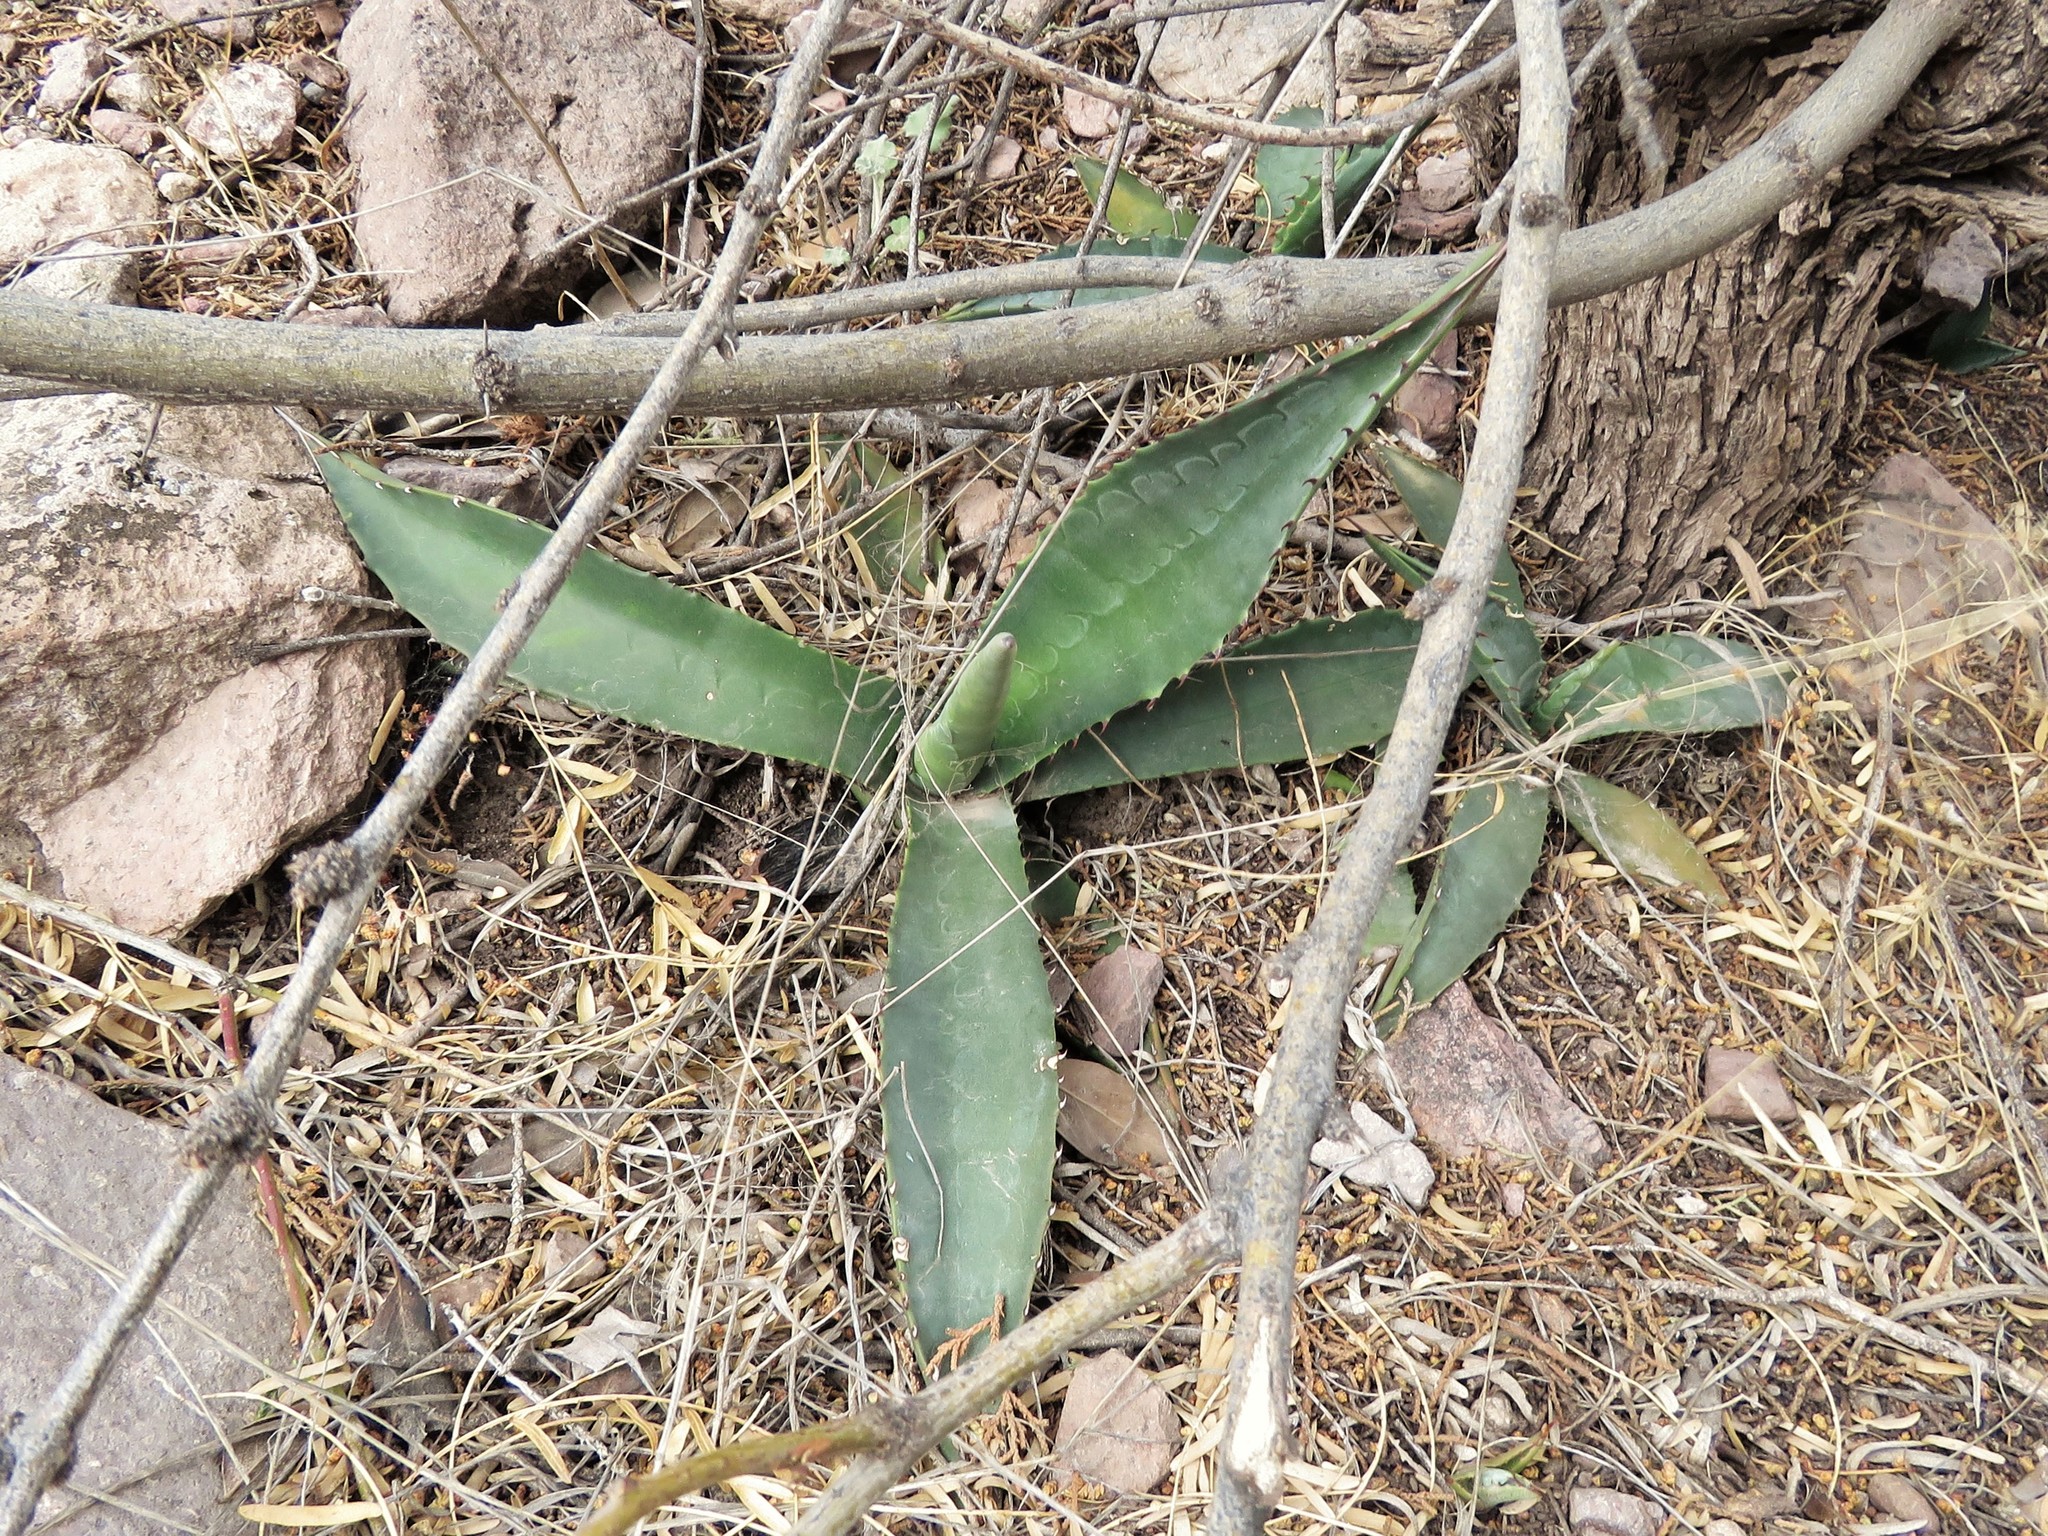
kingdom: Plantae
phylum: Tracheophyta
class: Liliopsida
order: Asparagales
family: Asparagaceae
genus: Agave
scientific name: Agave palmeri
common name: Palmer agave
